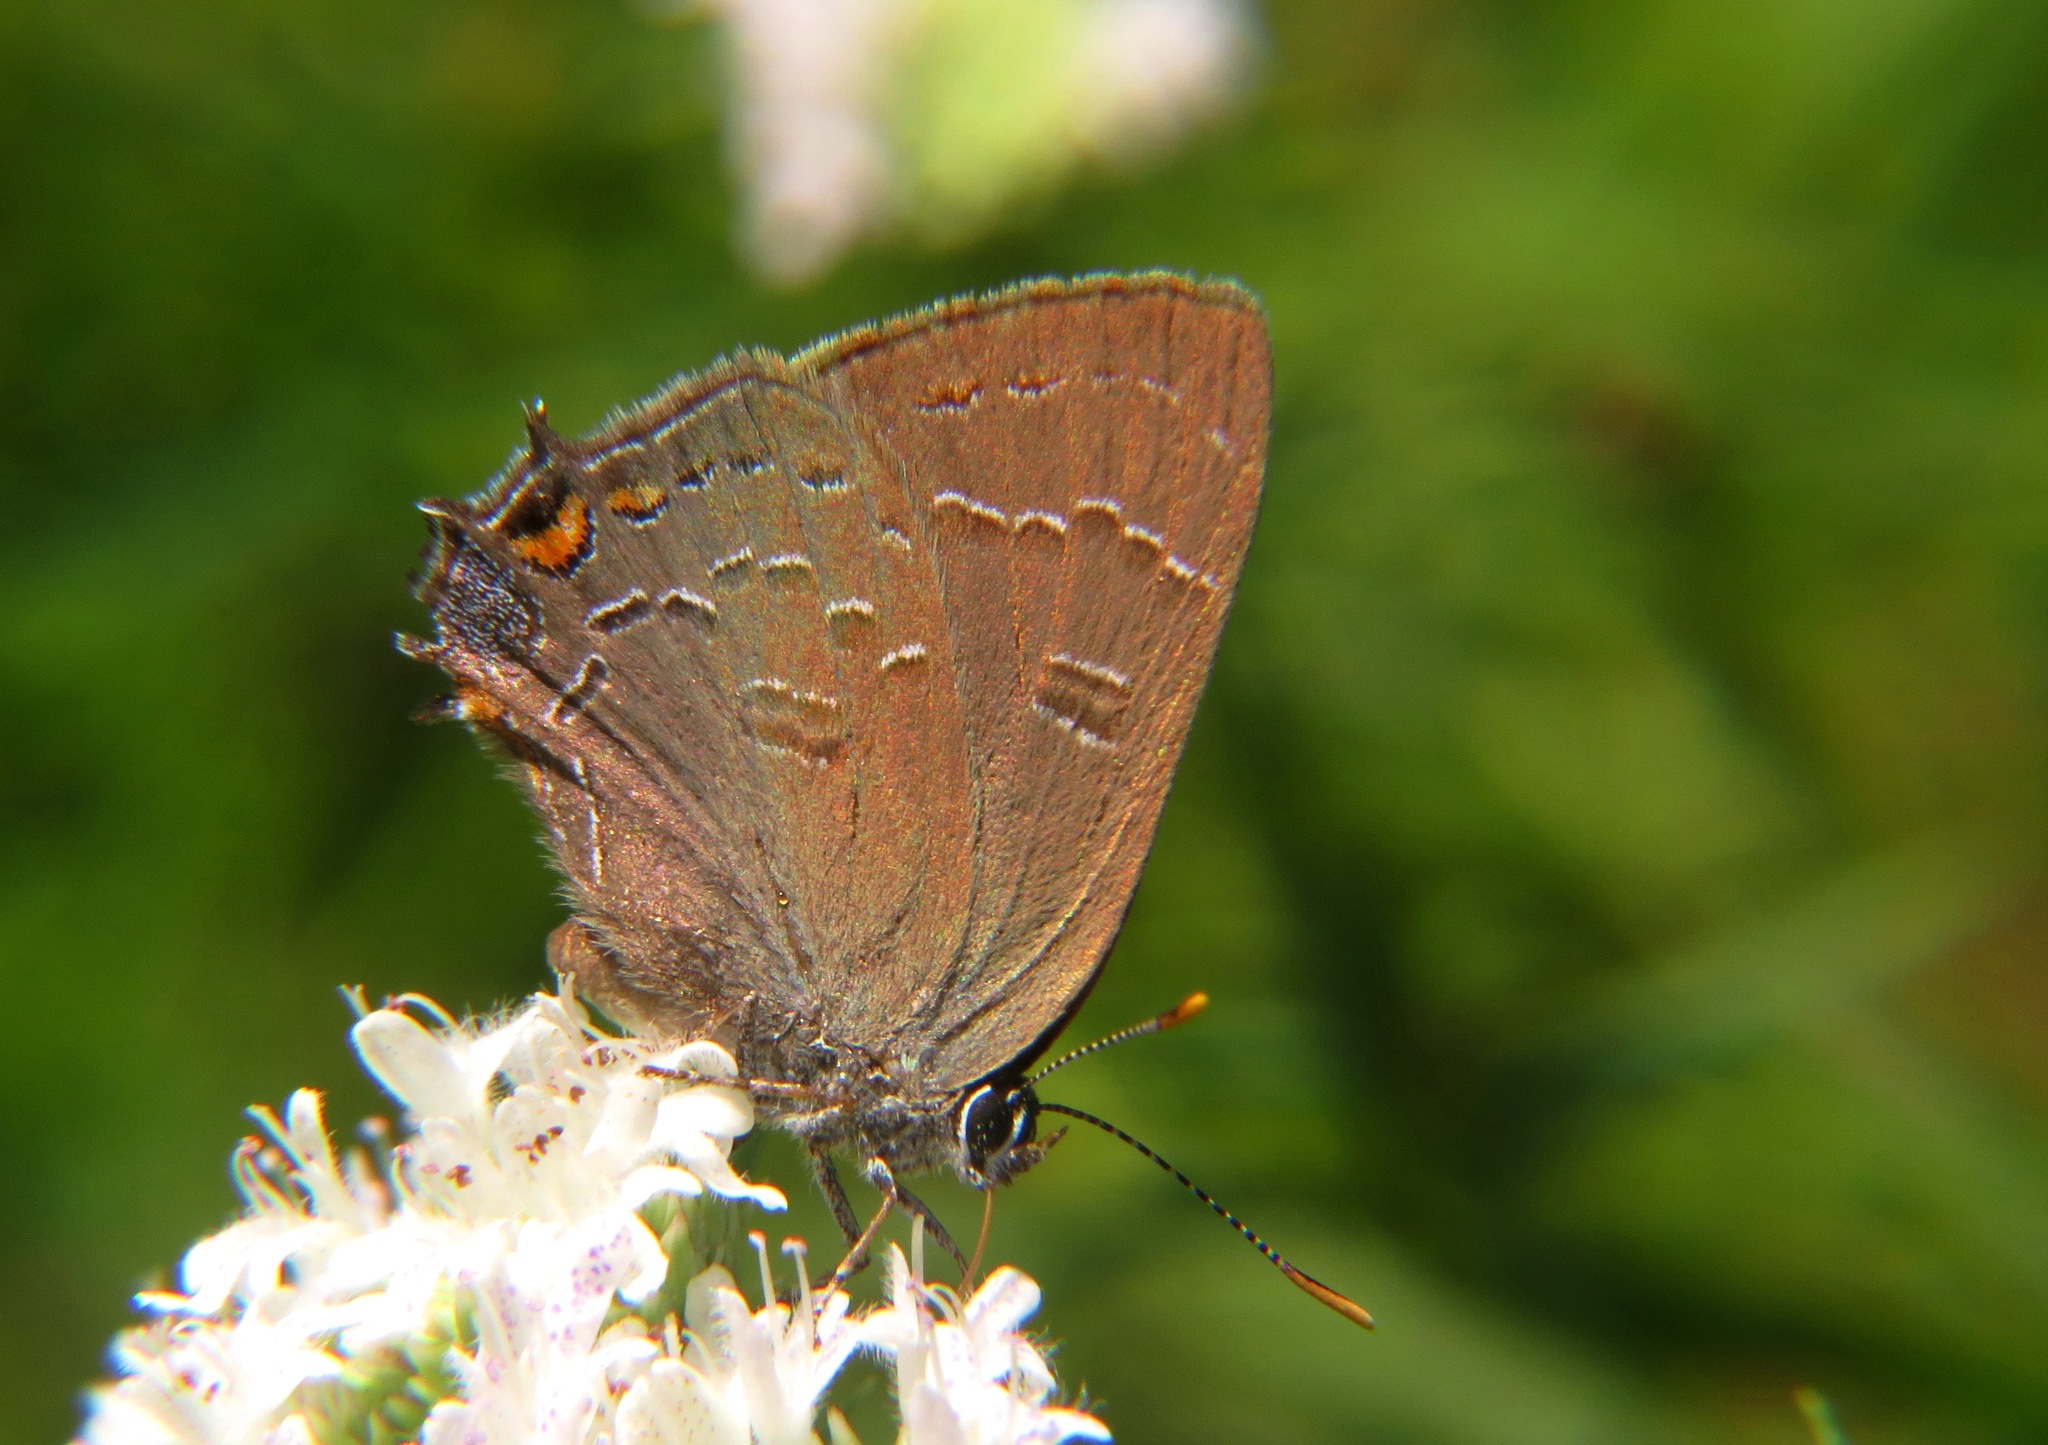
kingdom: Animalia
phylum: Arthropoda
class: Insecta
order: Lepidoptera
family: Lycaenidae
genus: Satyrium
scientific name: Satyrium calanus
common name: Banded hairstreak
